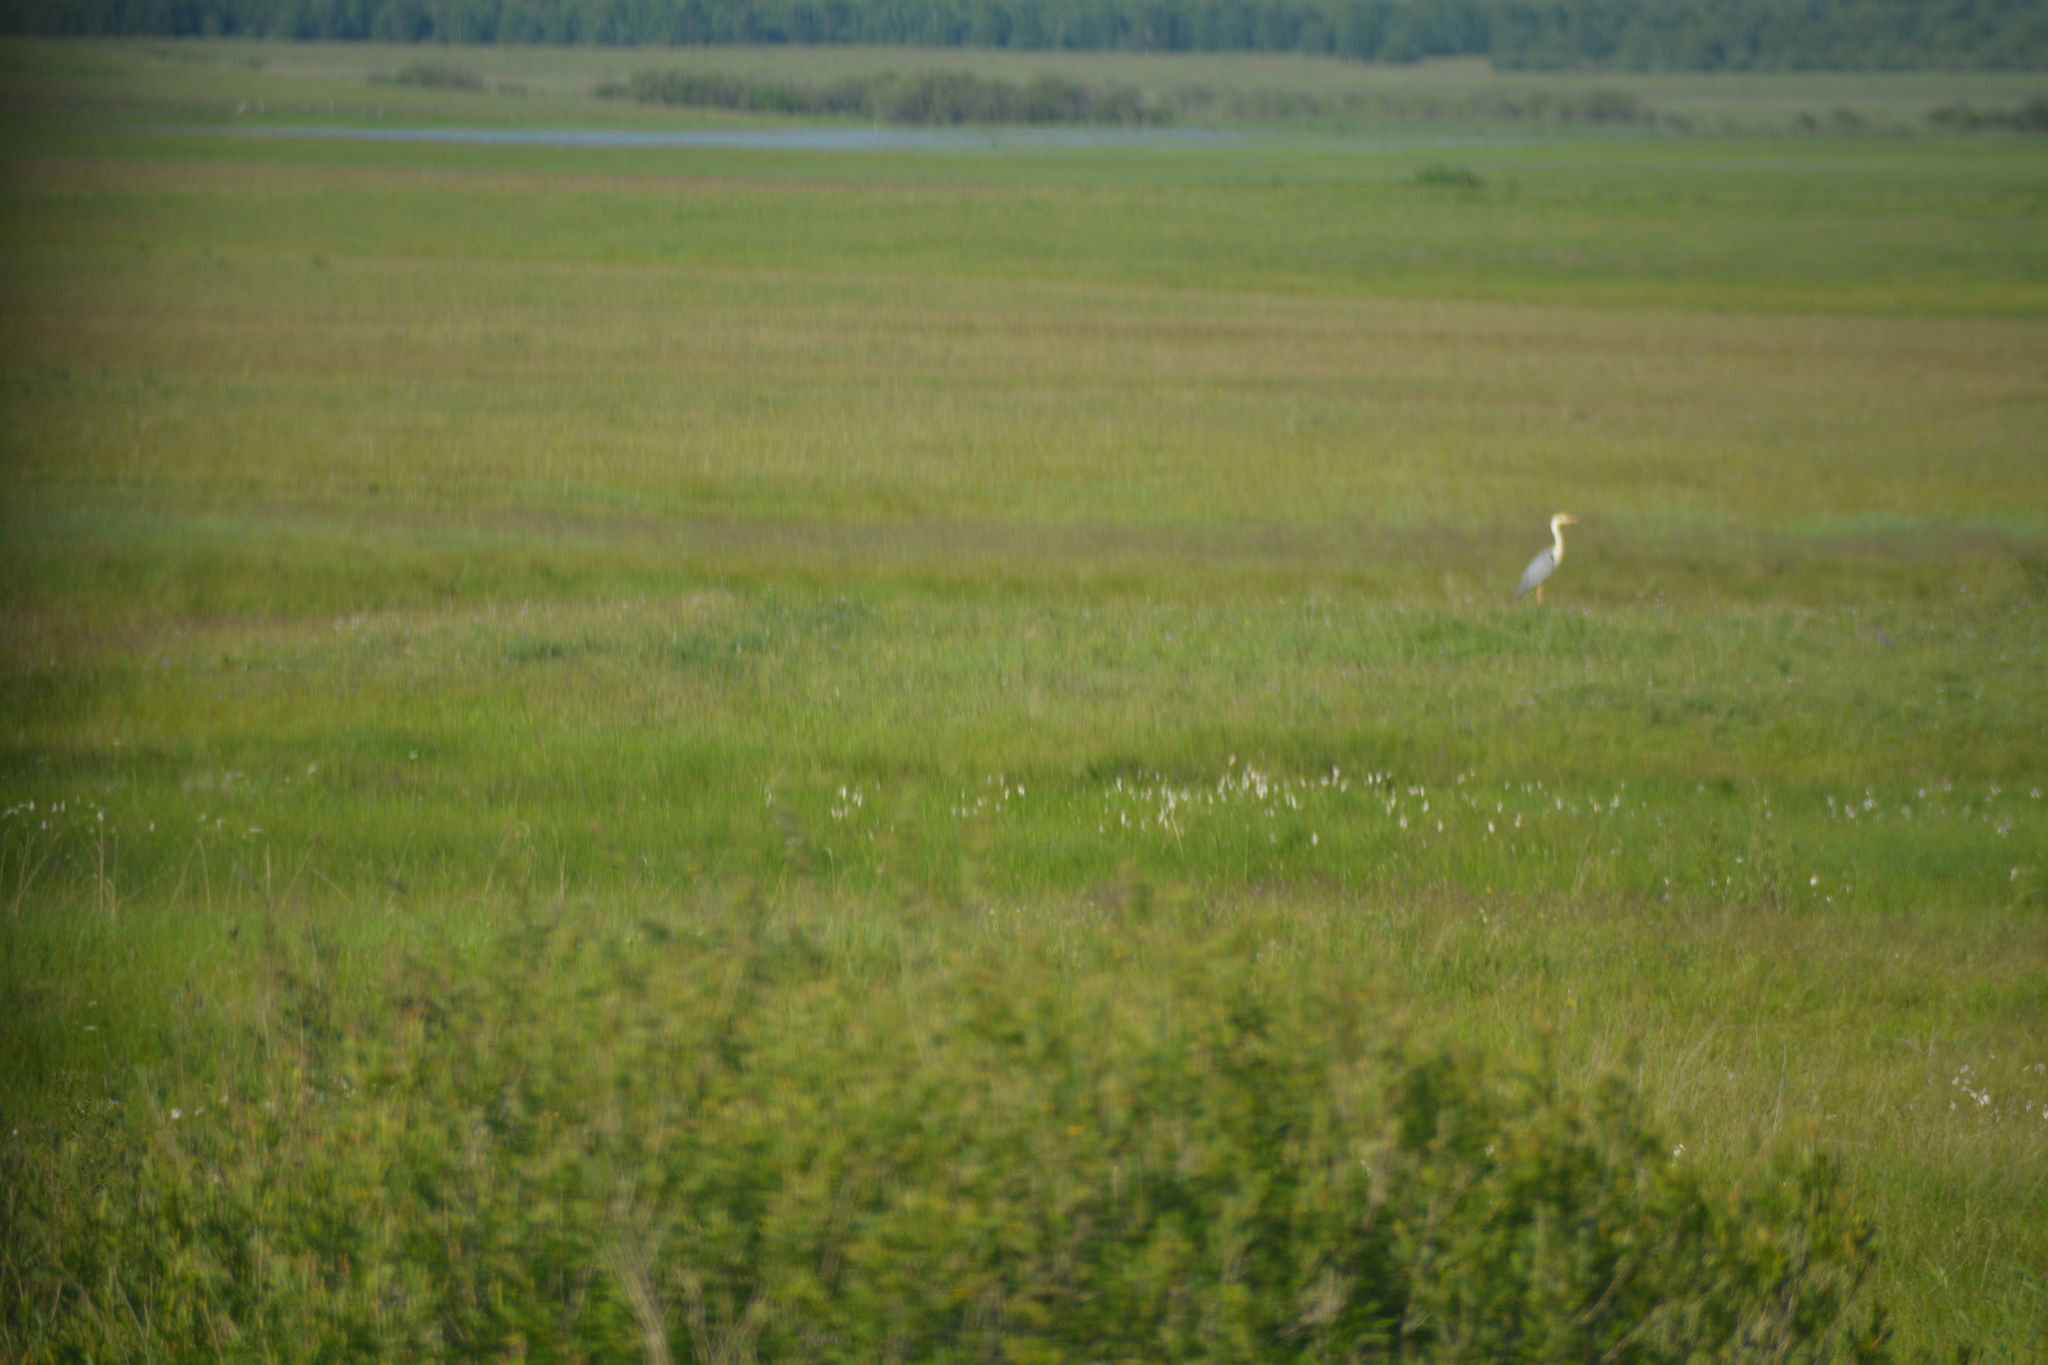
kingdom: Animalia
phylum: Chordata
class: Aves
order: Pelecaniformes
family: Ardeidae
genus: Ardea
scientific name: Ardea cinerea
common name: Grey heron
